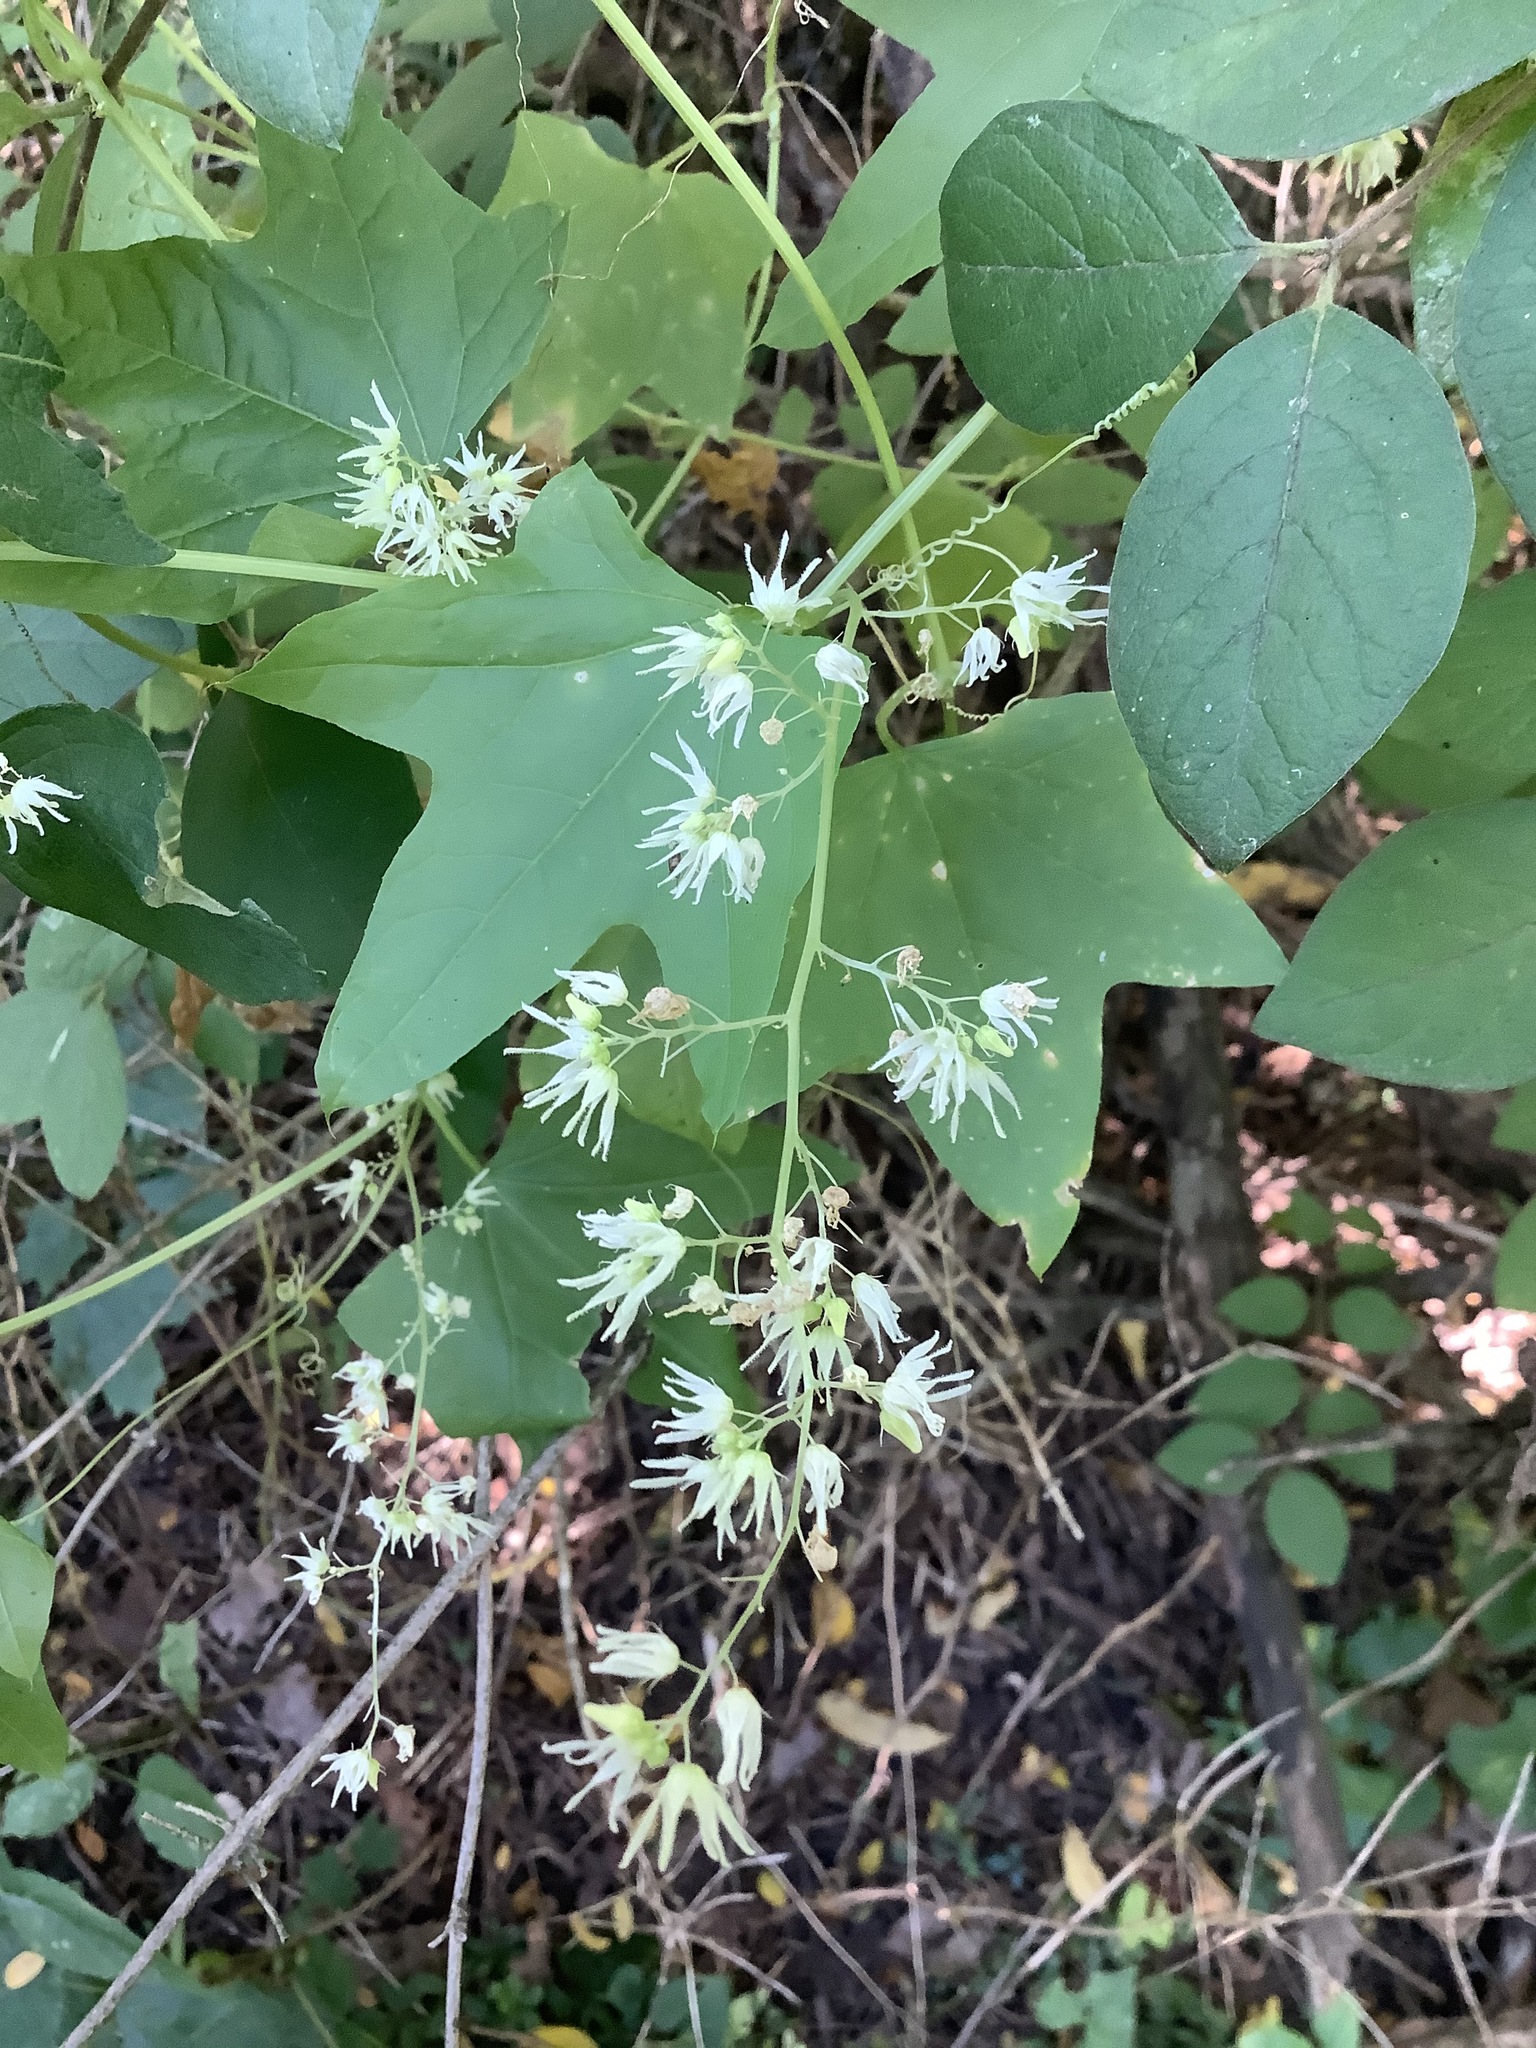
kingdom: Plantae
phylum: Tracheophyta
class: Magnoliopsida
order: Cucurbitales
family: Cucurbitaceae
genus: Echinocystis
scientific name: Echinocystis lobata
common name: Wild cucumber
